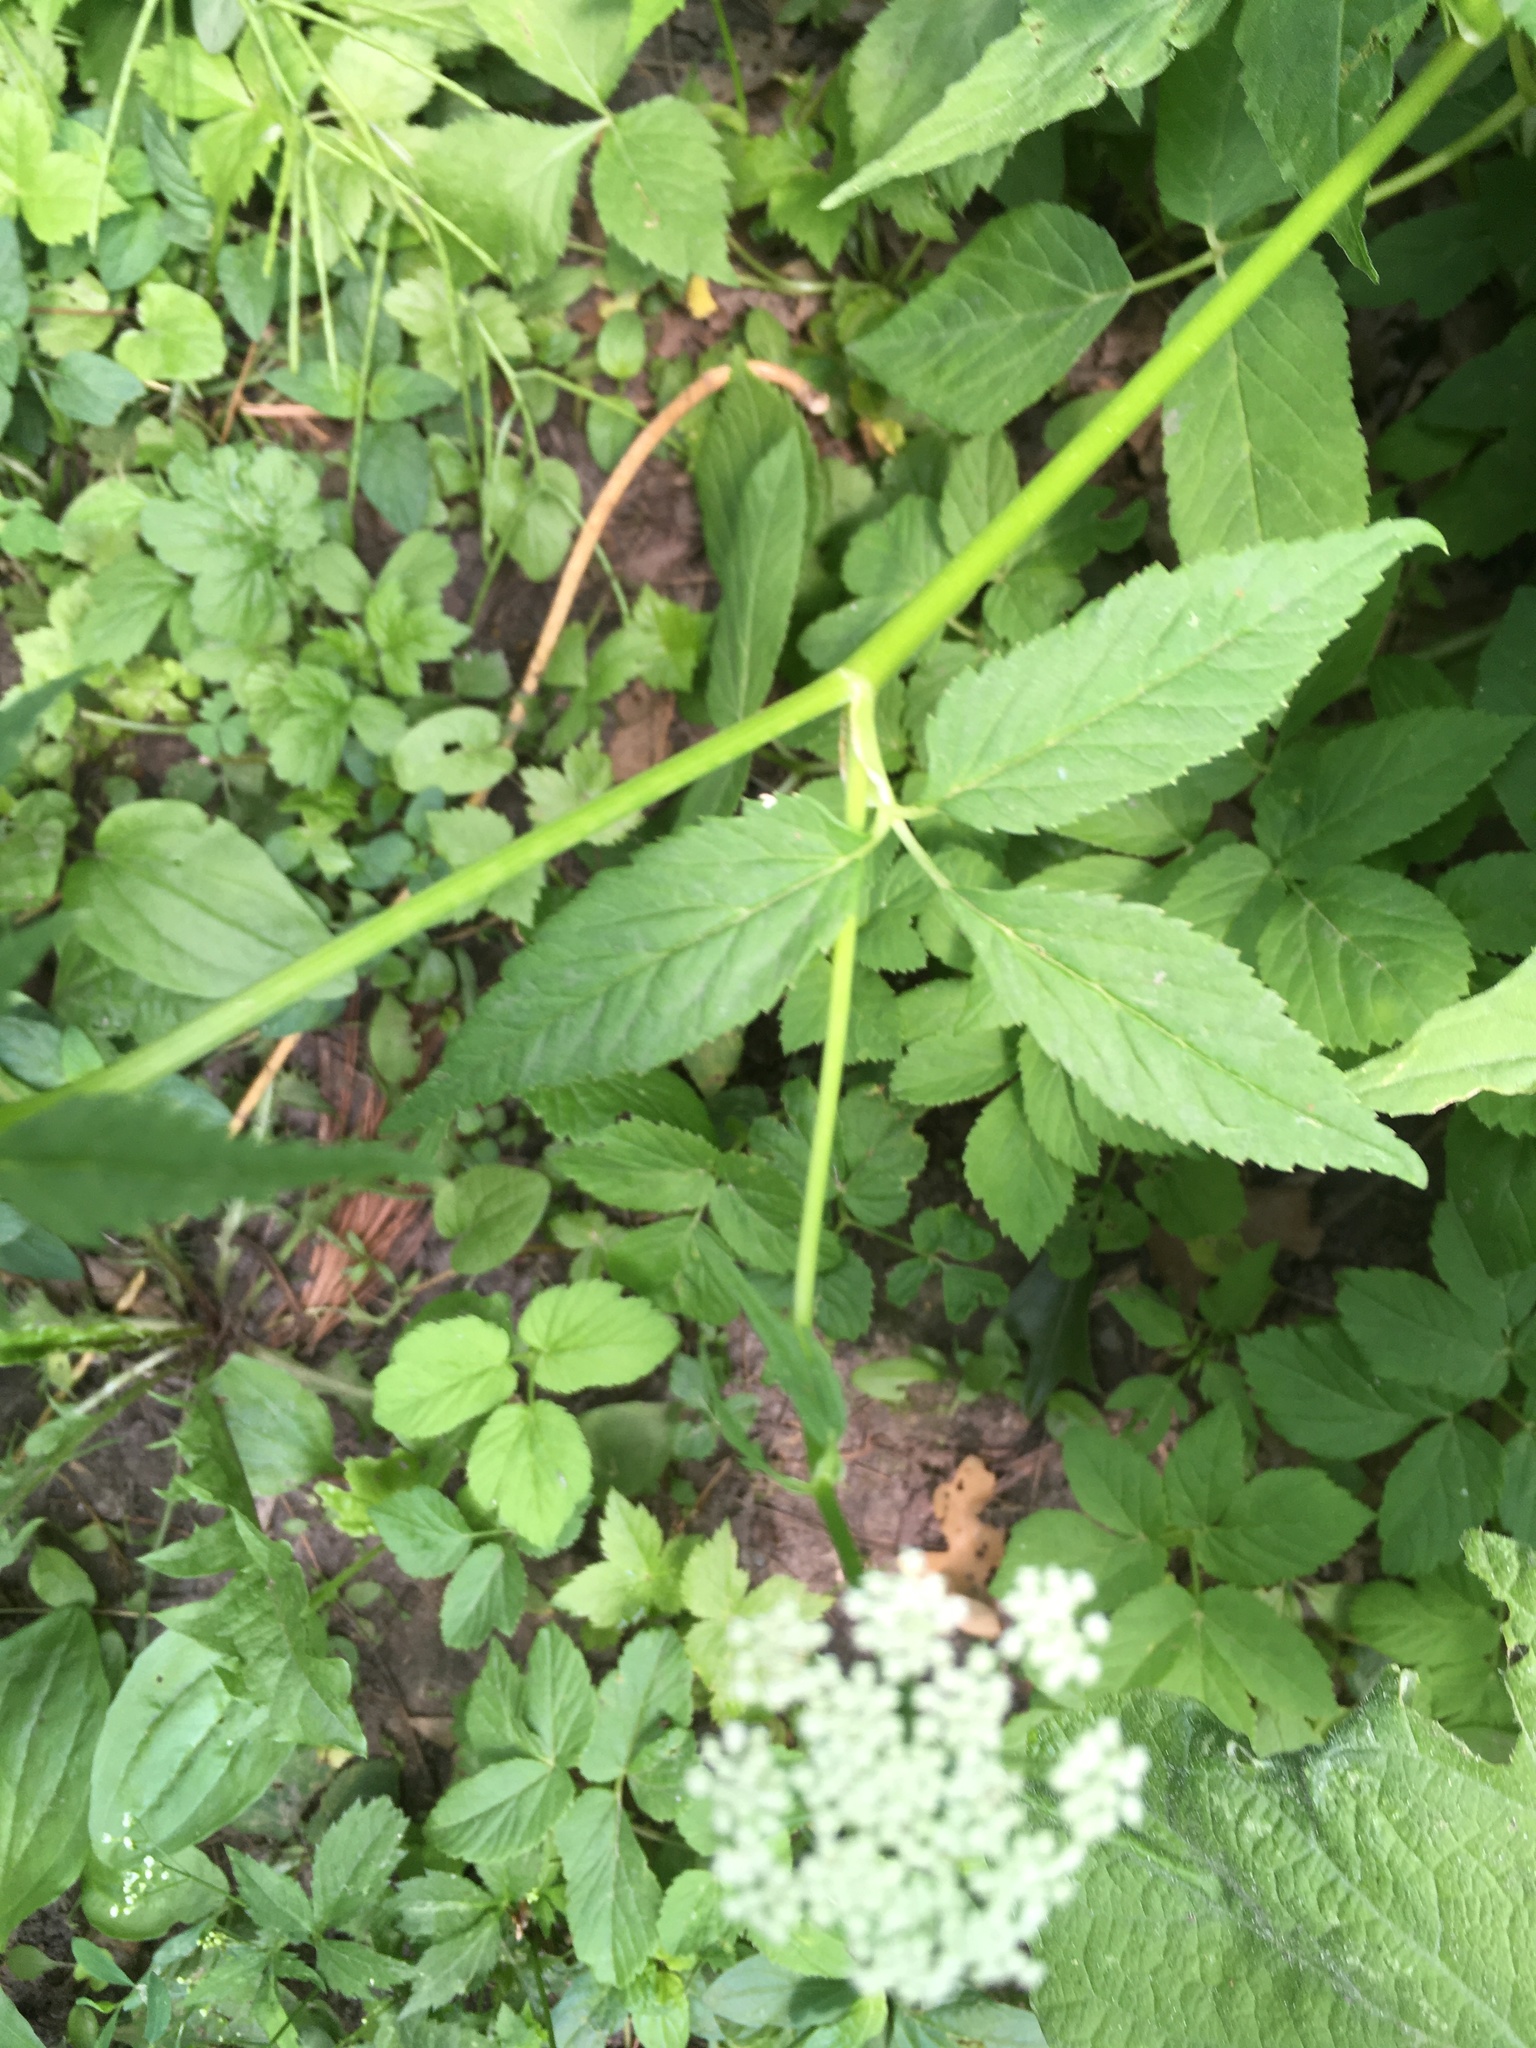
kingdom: Plantae
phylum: Tracheophyta
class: Magnoliopsida
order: Apiales
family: Apiaceae
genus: Aegopodium
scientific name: Aegopodium podagraria
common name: Ground-elder
